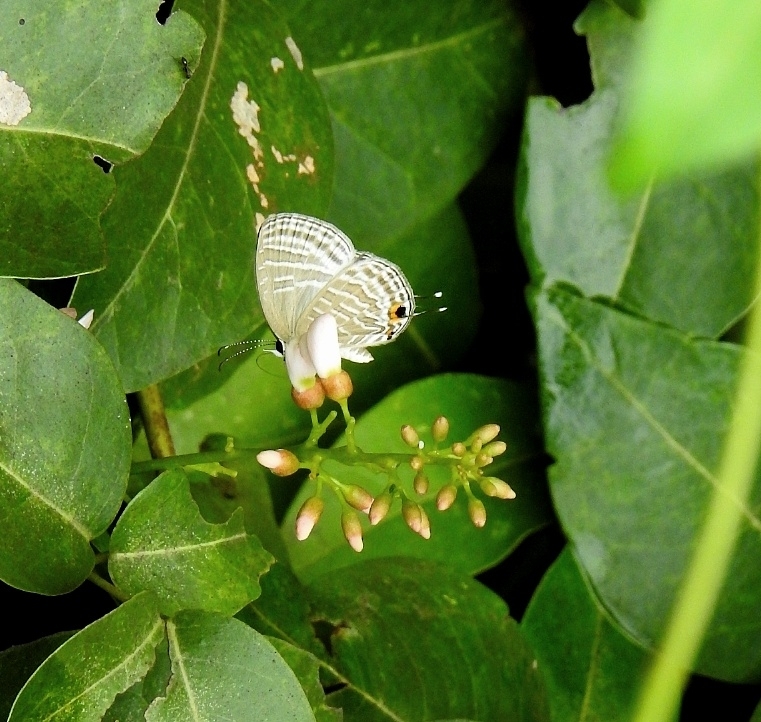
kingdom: Animalia
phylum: Arthropoda
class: Insecta
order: Lepidoptera
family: Lycaenidae
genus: Jamides
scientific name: Jamides celeno
